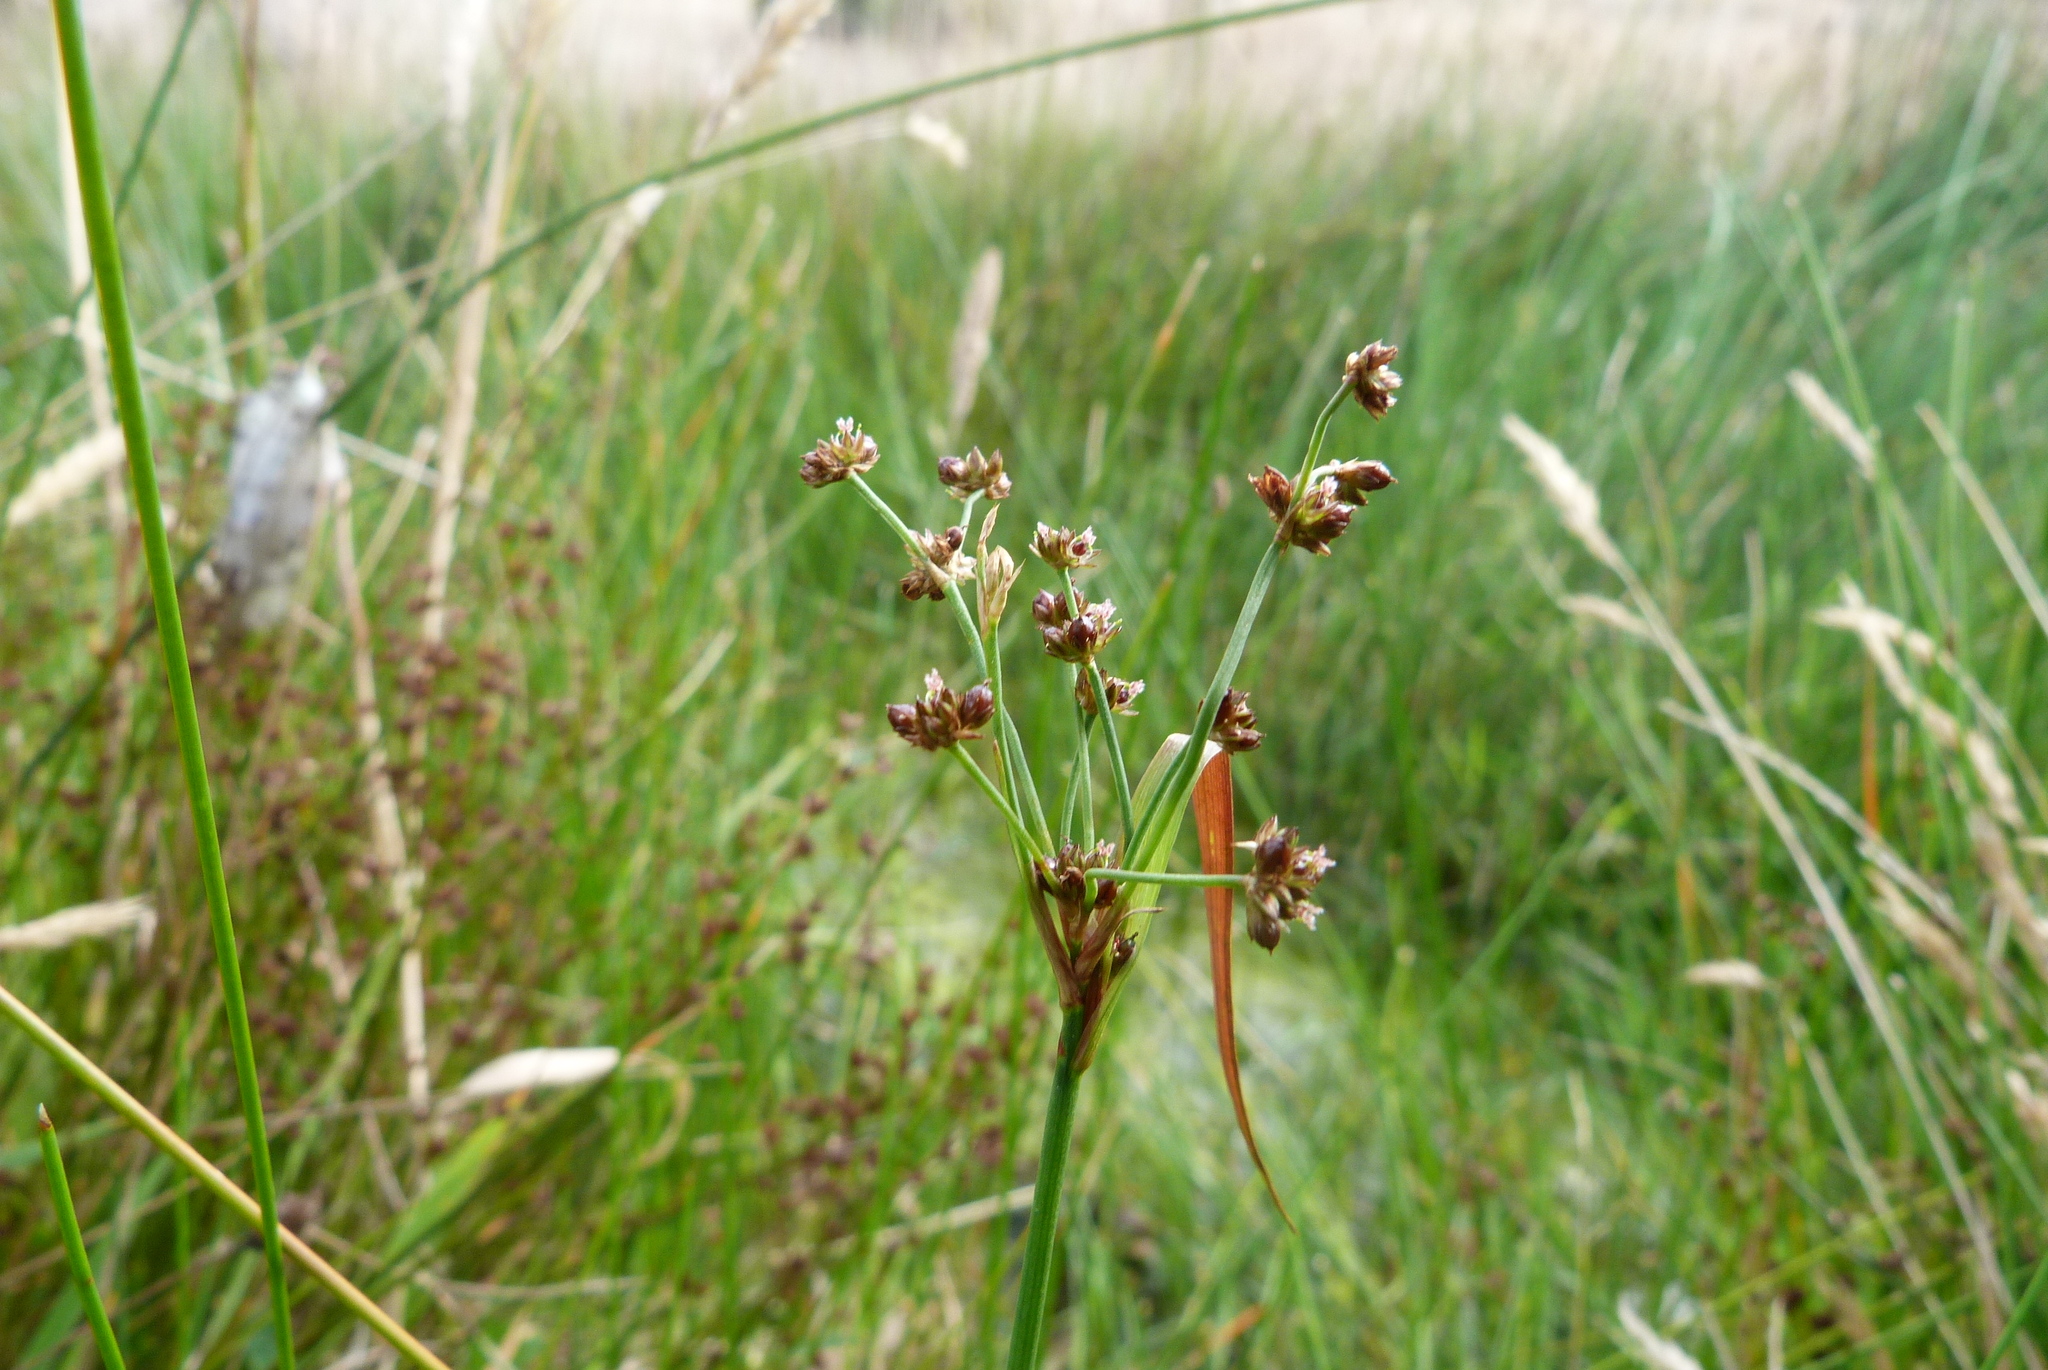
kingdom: Plantae
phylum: Tracheophyta
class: Liliopsida
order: Poales
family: Juncaceae
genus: Juncus
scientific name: Juncus planifolius
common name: Broadleaf rush
